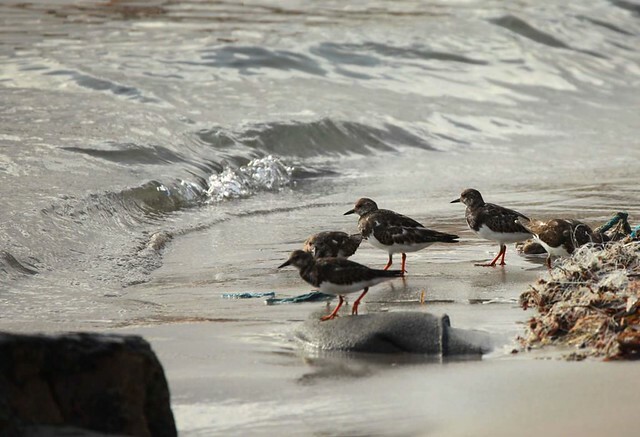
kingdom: Animalia
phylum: Chordata
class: Aves
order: Charadriiformes
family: Scolopacidae
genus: Arenaria
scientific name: Arenaria interpres
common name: Ruddy turnstone
